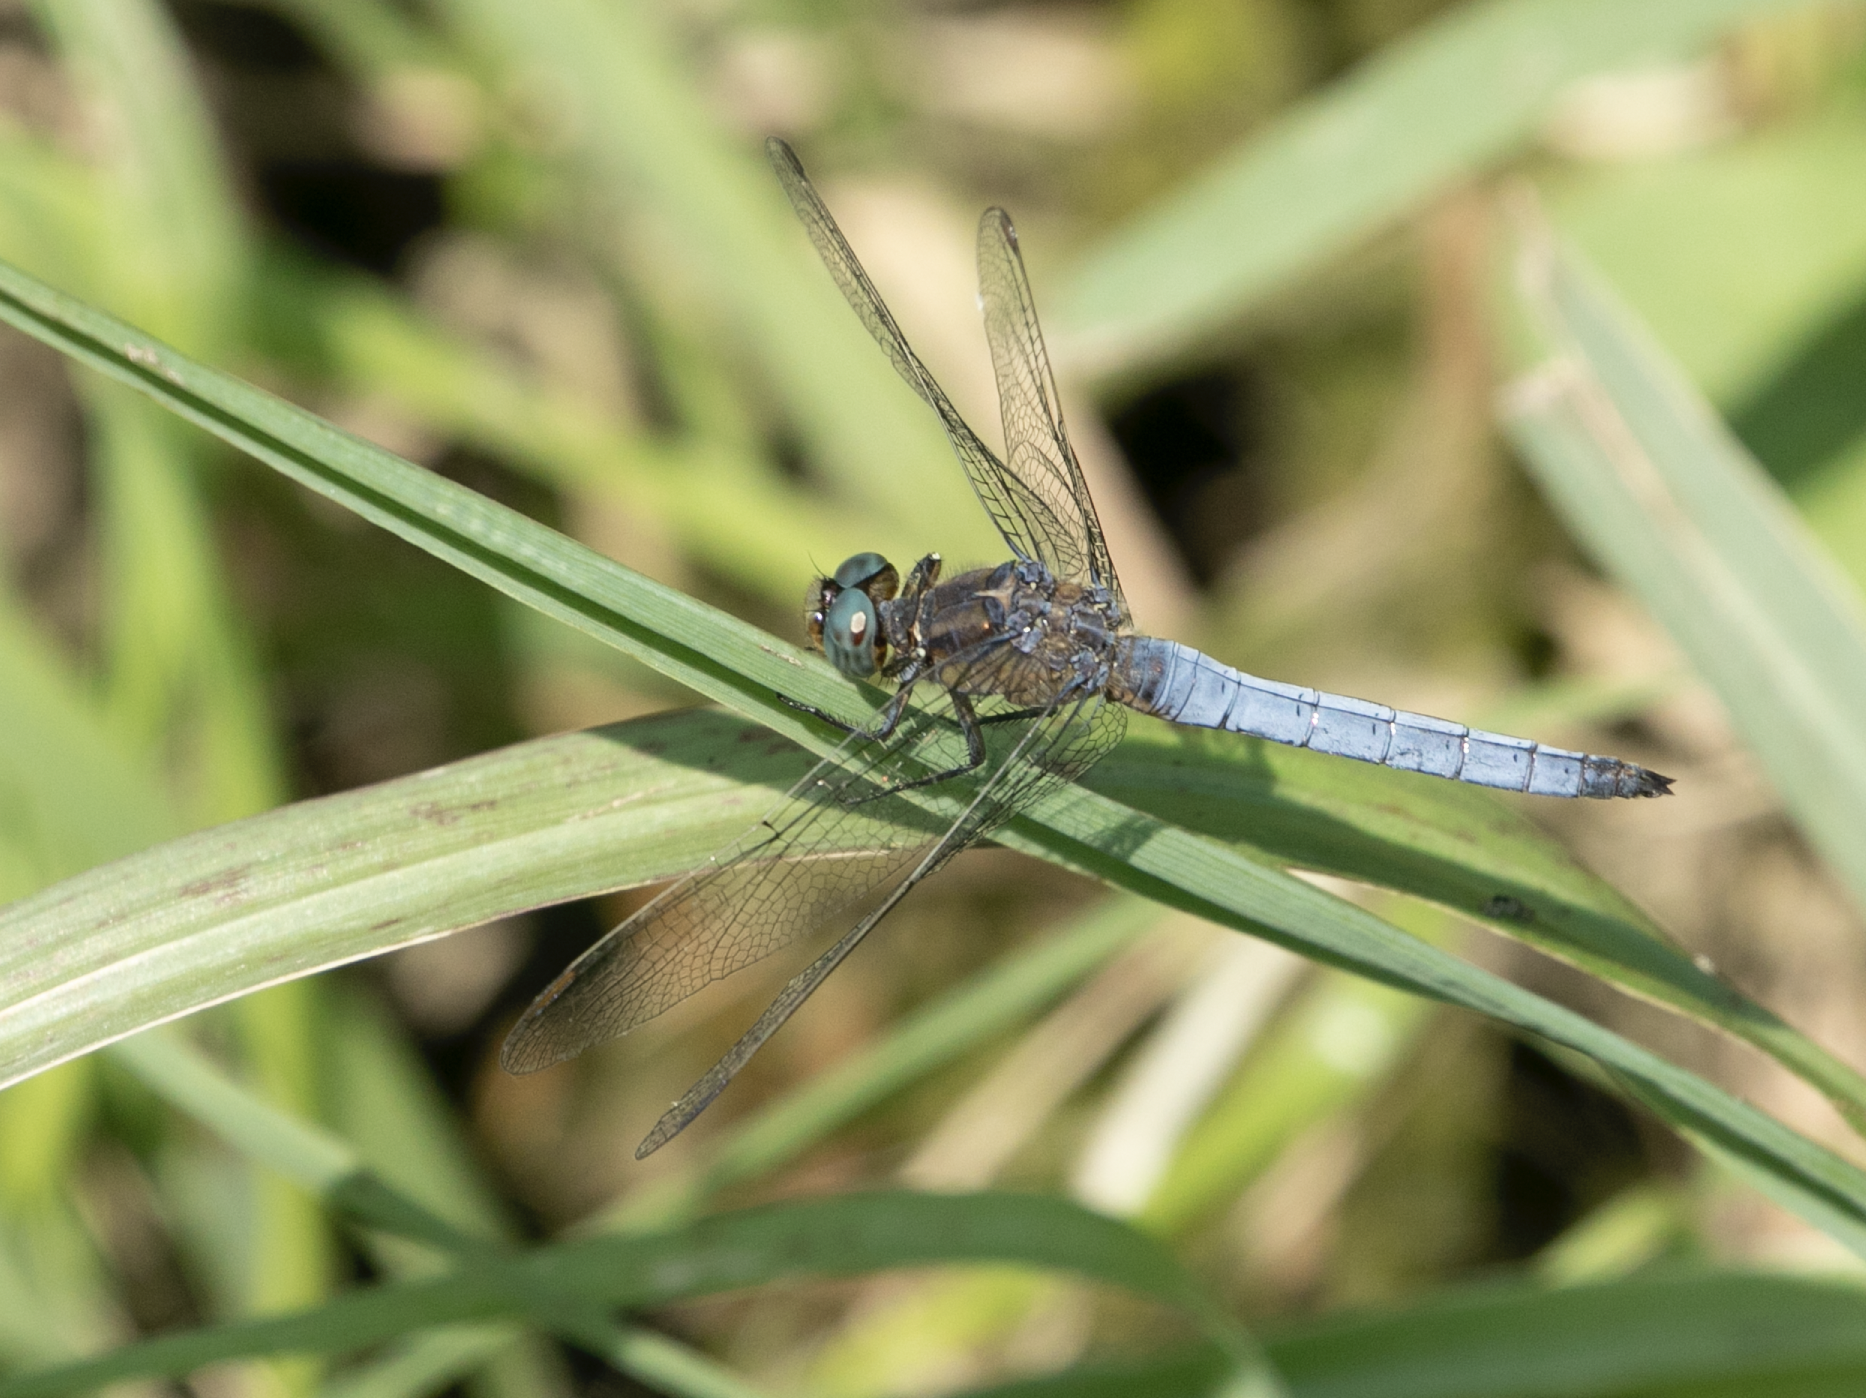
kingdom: Animalia
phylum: Arthropoda
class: Insecta
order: Odonata
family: Libellulidae
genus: Orthetrum
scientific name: Orthetrum coerulescens
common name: Keeled skimmer
